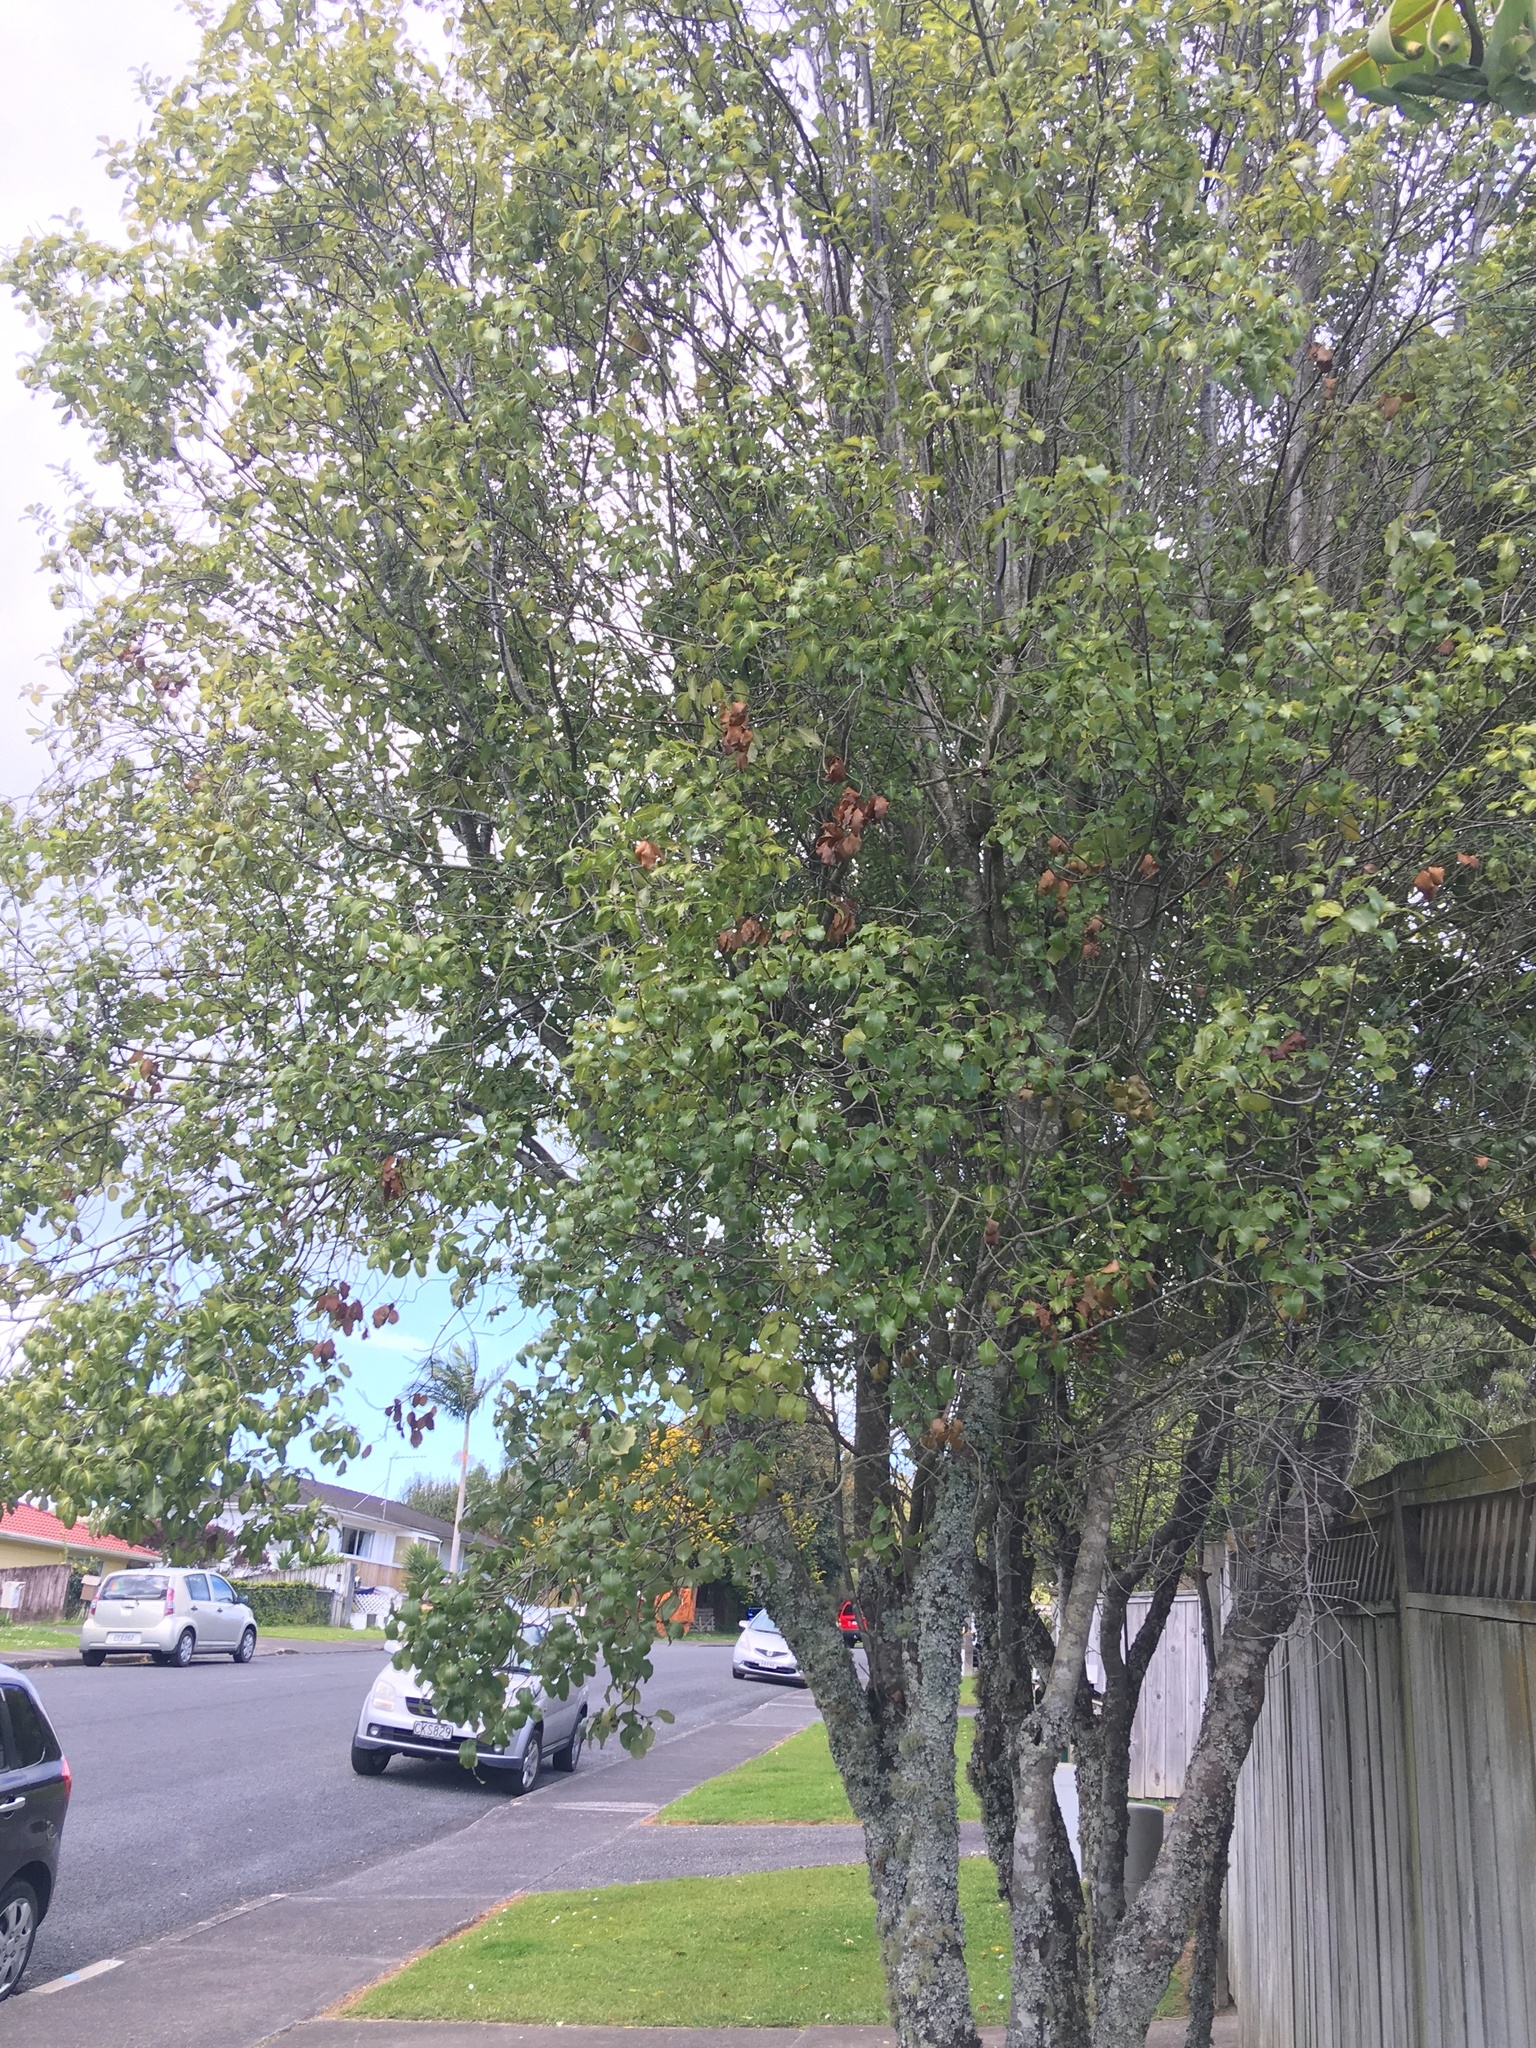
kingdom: Plantae
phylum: Tracheophyta
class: Magnoliopsida
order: Apiales
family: Pittosporaceae
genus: Pittosporum
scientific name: Pittosporum tenuifolium
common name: Kohuhu
